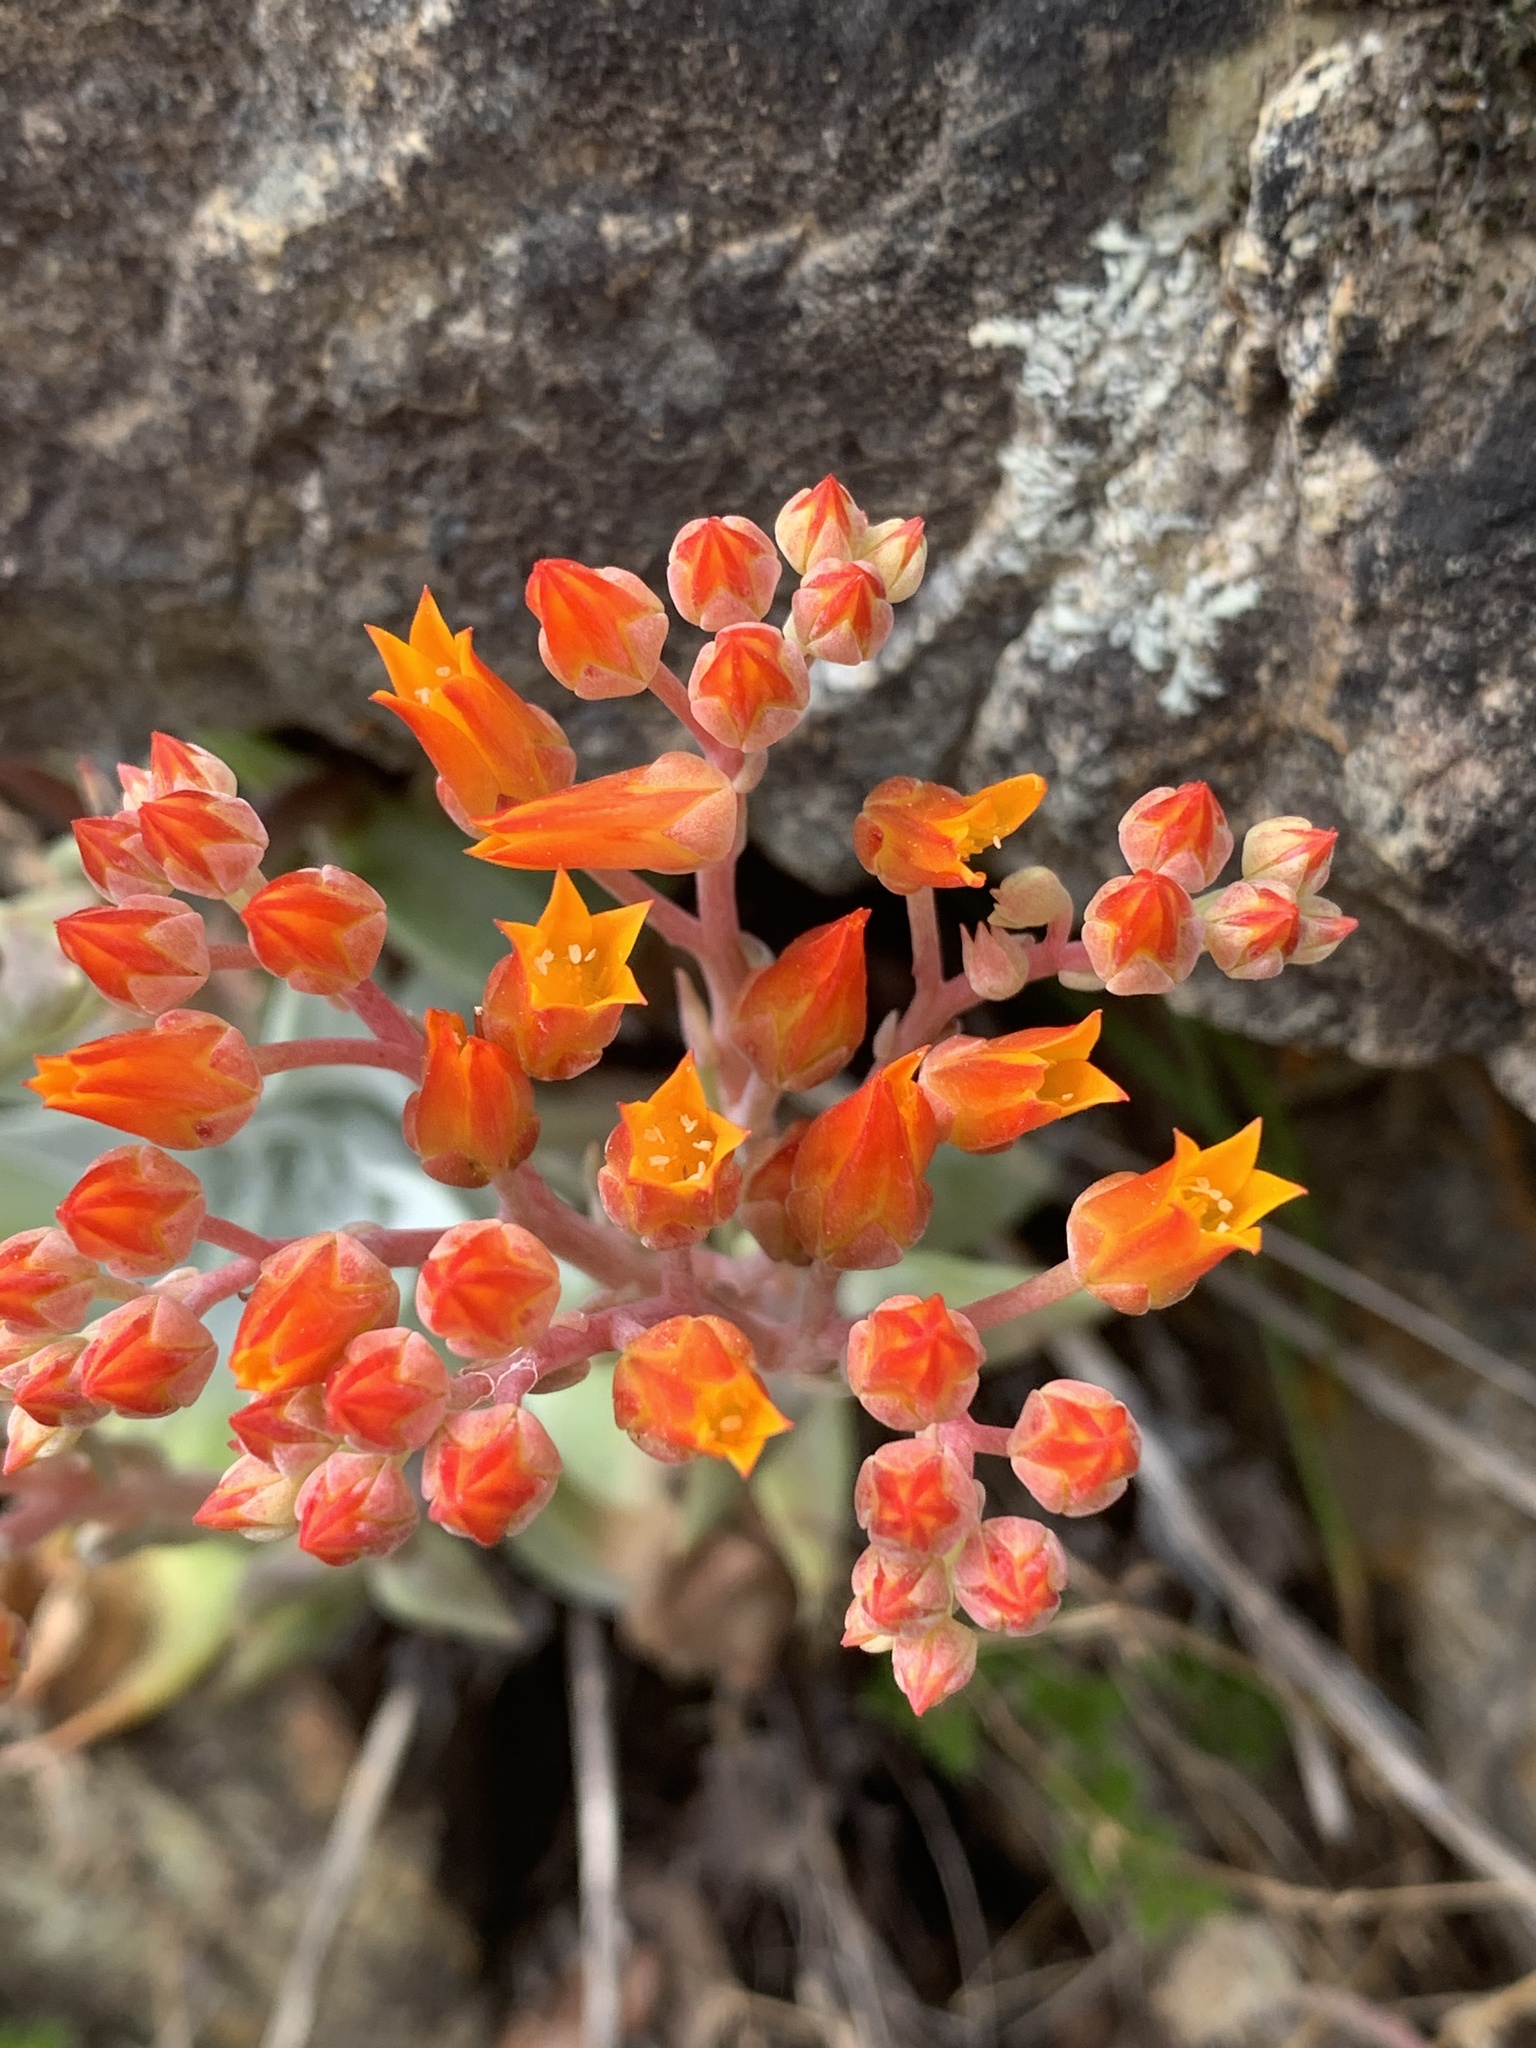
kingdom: Plantae
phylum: Tracheophyta
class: Magnoliopsida
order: Saxifragales
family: Crassulaceae
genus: Dudleya
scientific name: Dudleya cymosa
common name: Canyon dudleya
